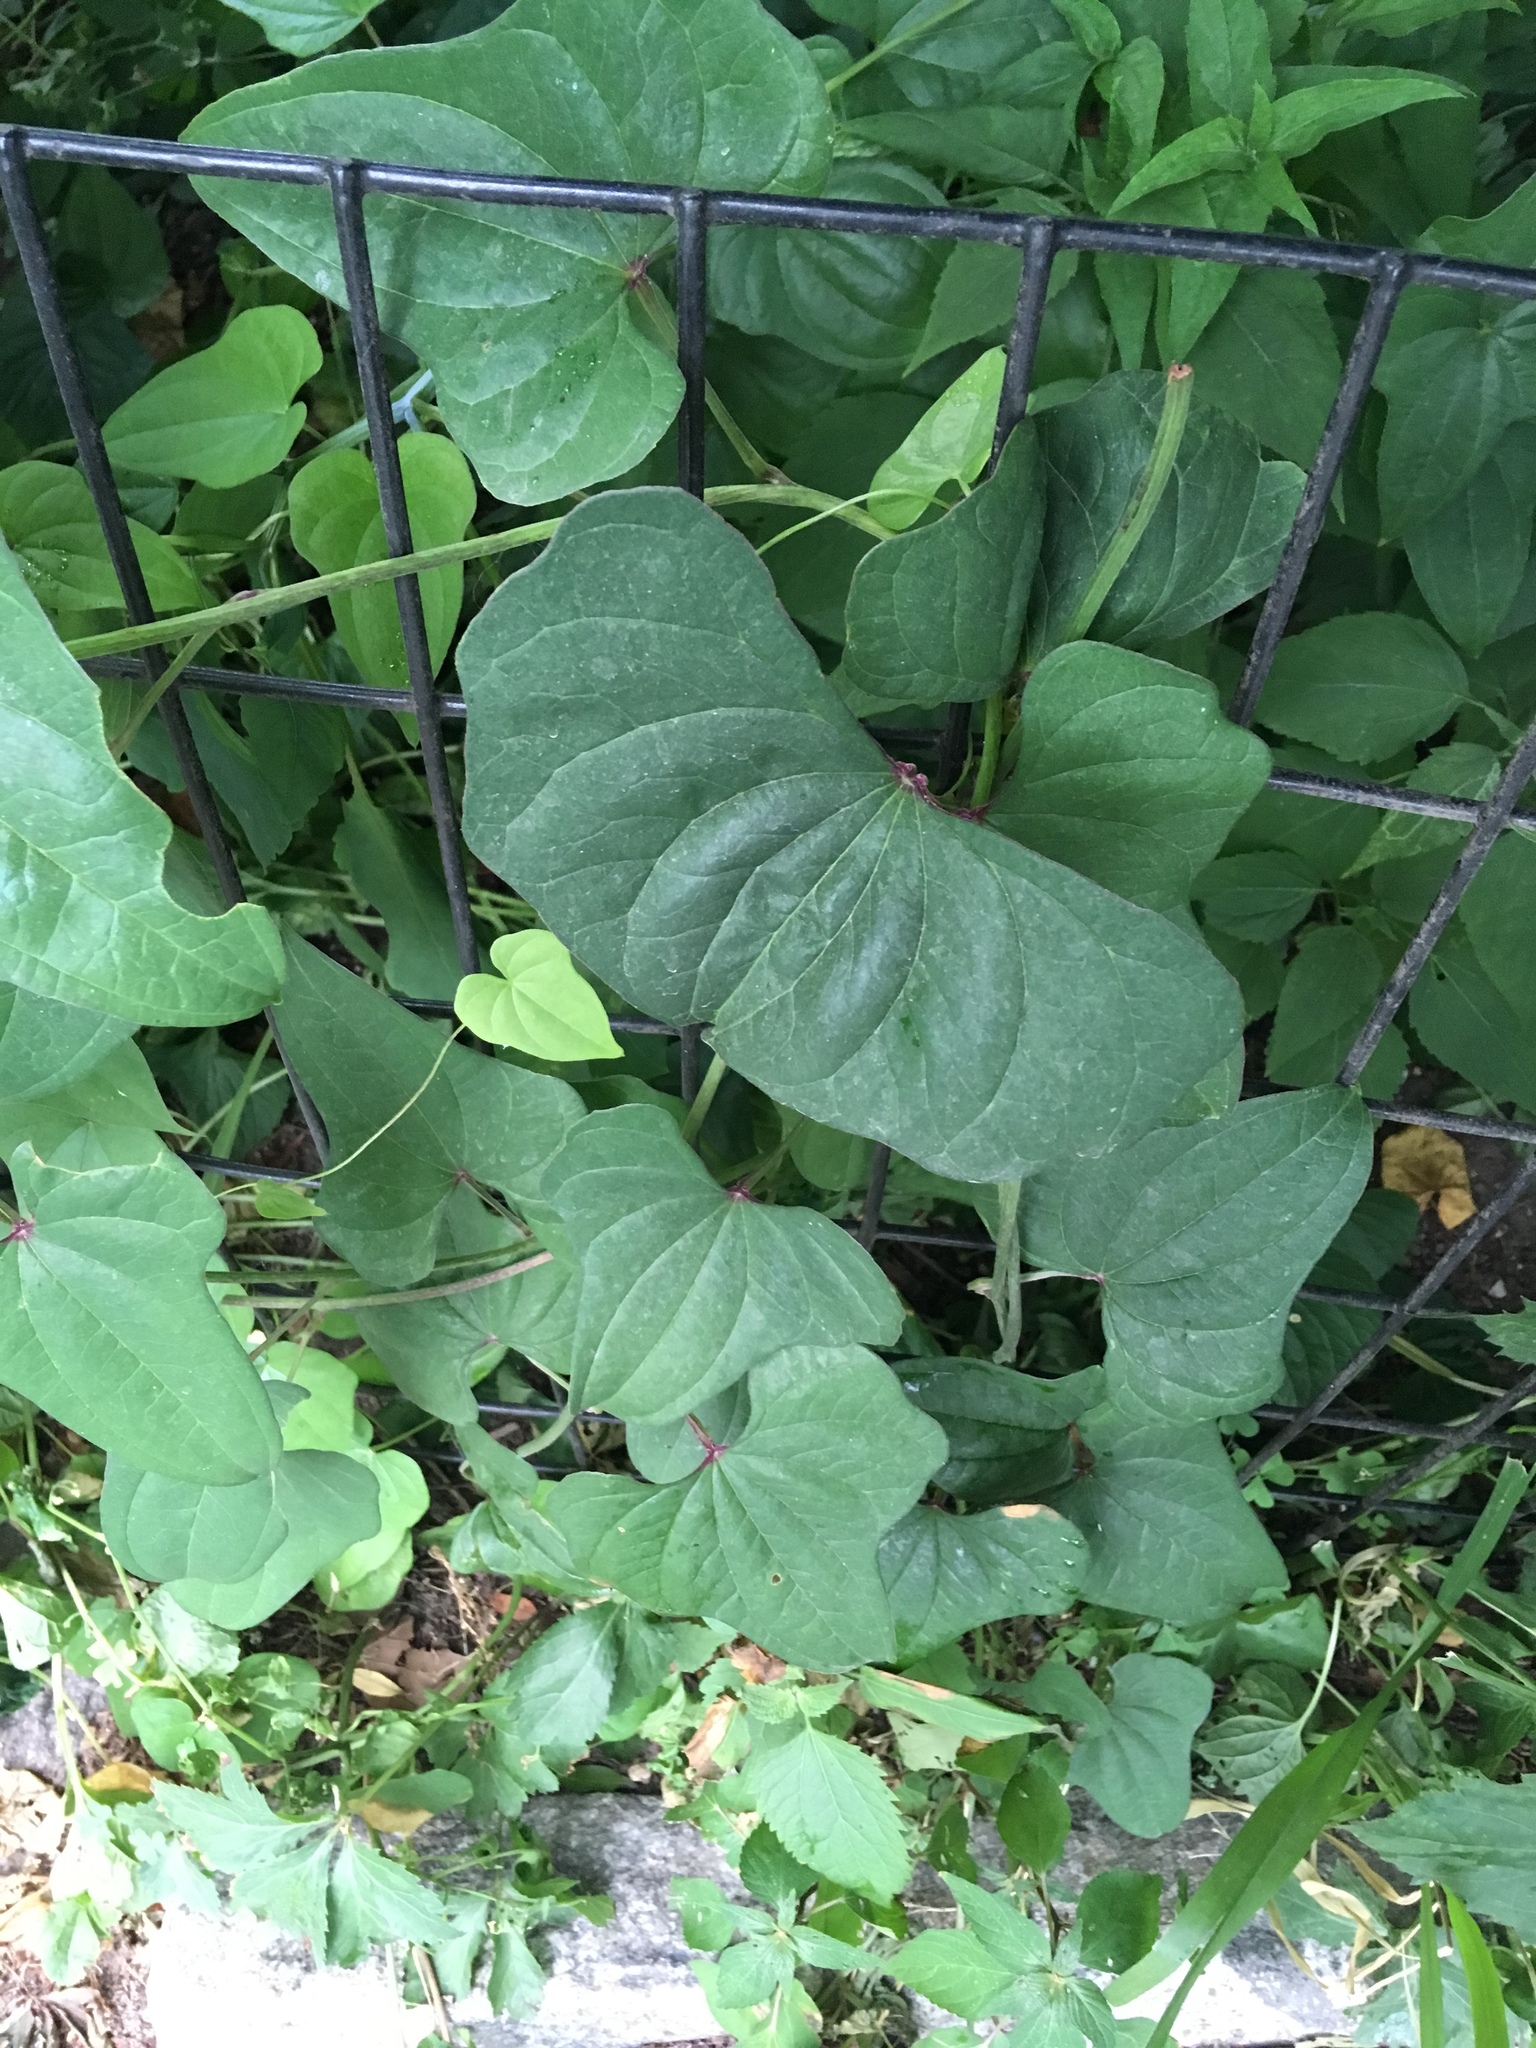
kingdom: Plantae
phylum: Tracheophyta
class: Liliopsida
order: Dioscoreales
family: Dioscoreaceae
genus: Dioscorea
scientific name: Dioscorea polystachya
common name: Chinese yam
